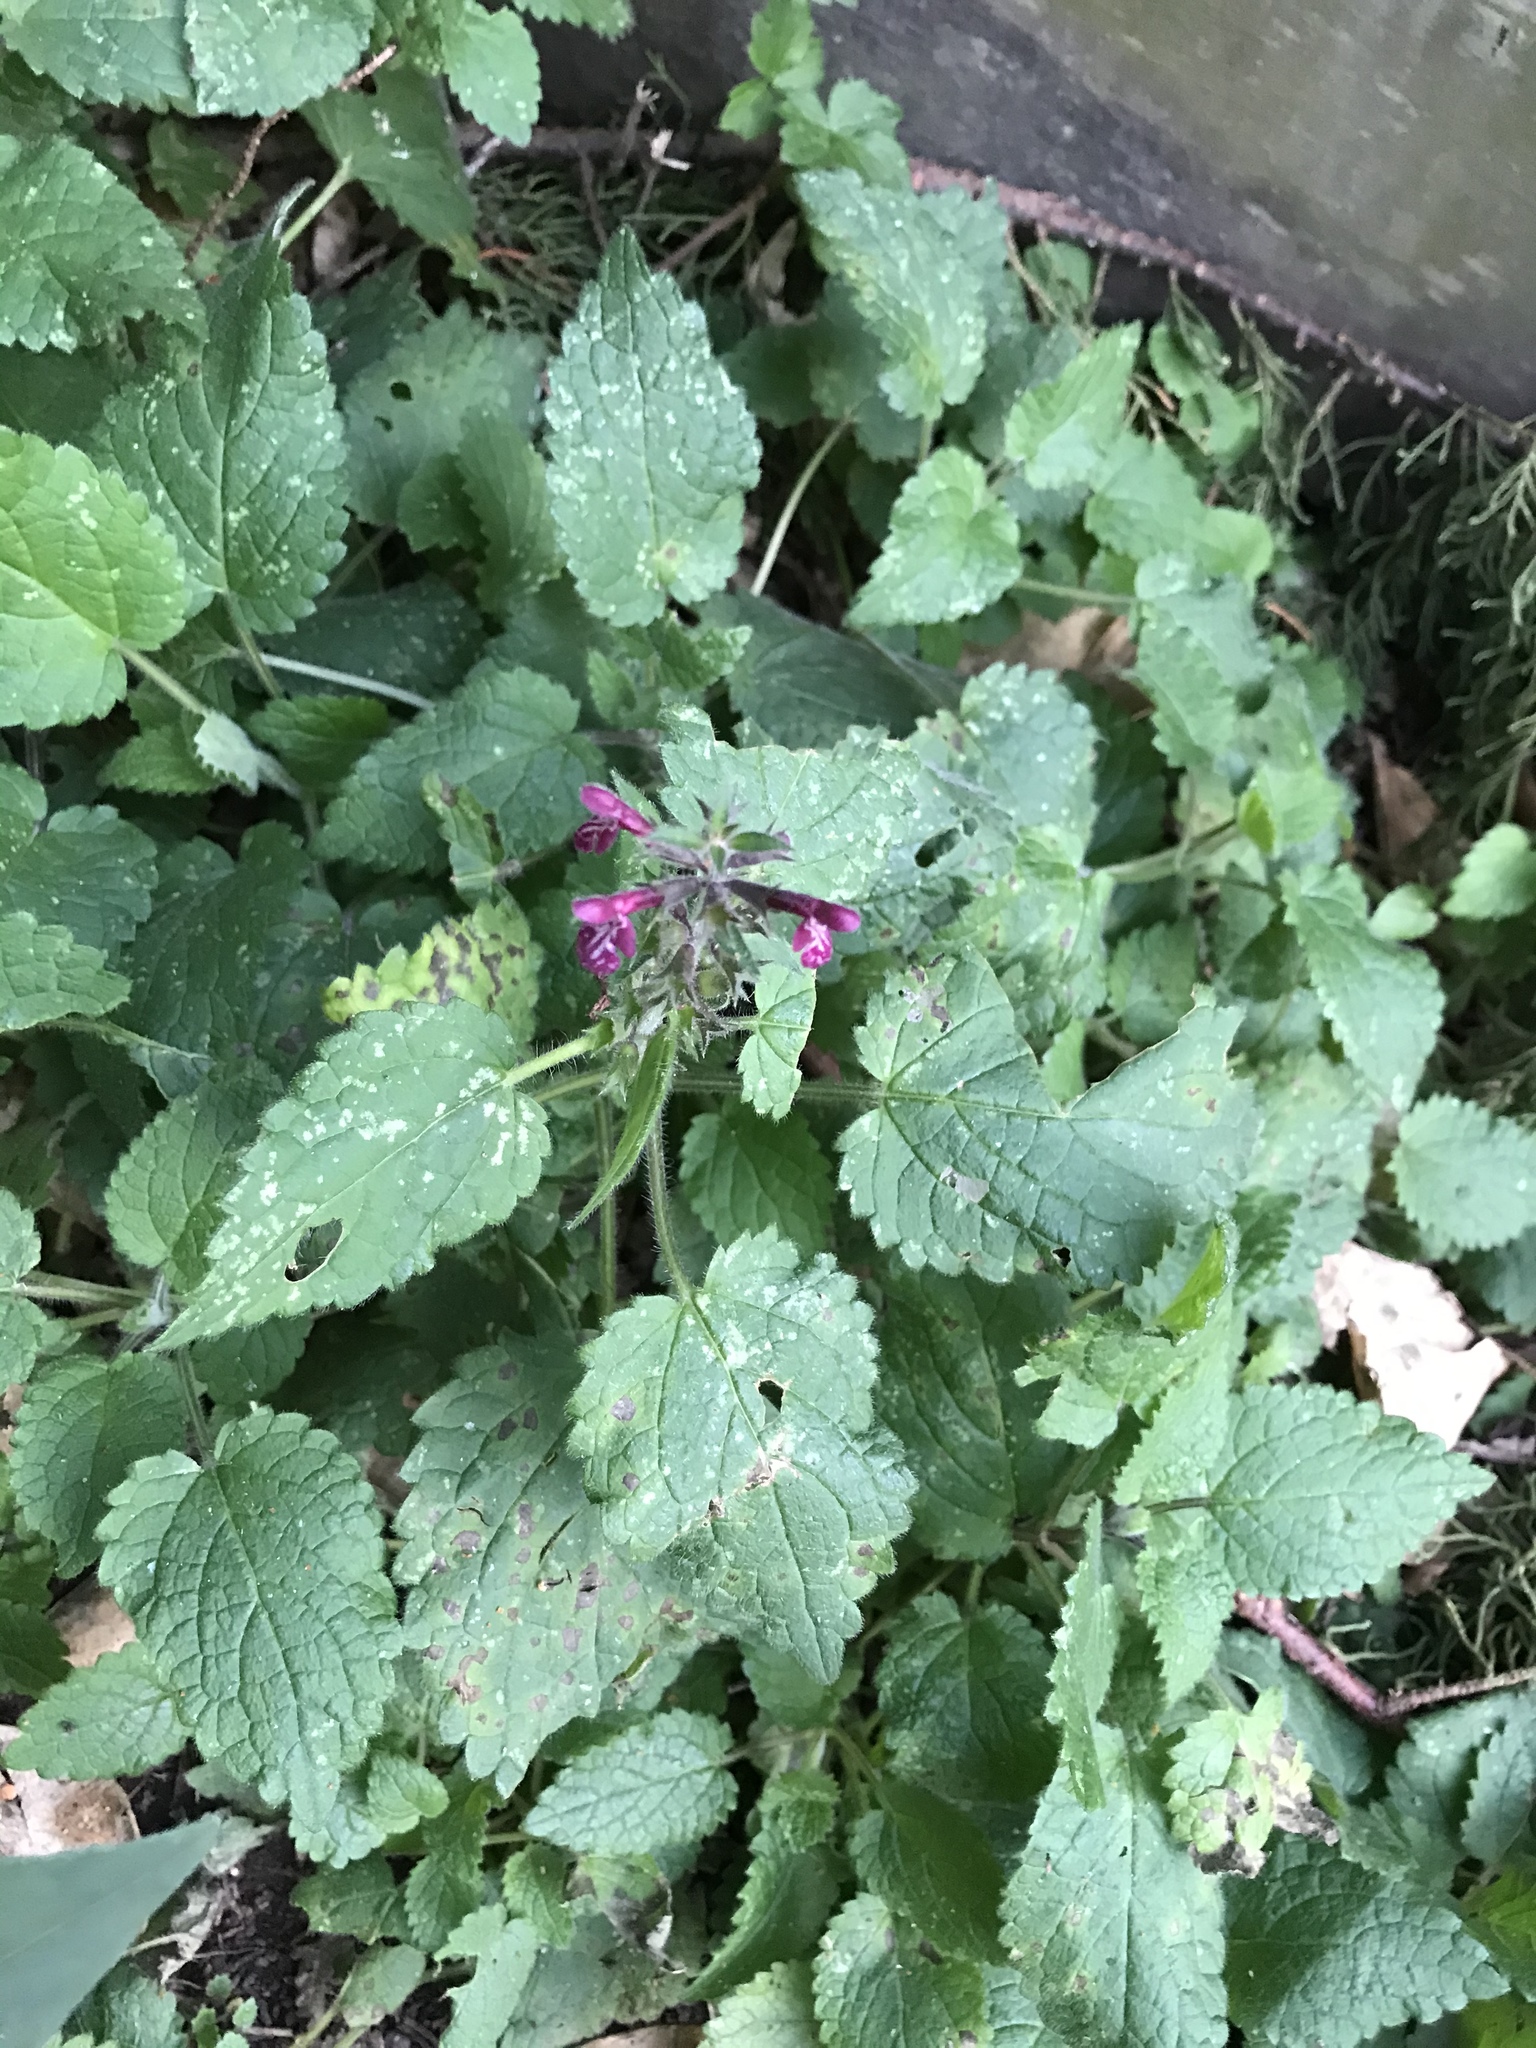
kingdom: Plantae
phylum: Tracheophyta
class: Magnoliopsida
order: Lamiales
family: Lamiaceae
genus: Stachys
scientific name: Stachys sylvatica
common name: Hedge woundwort
